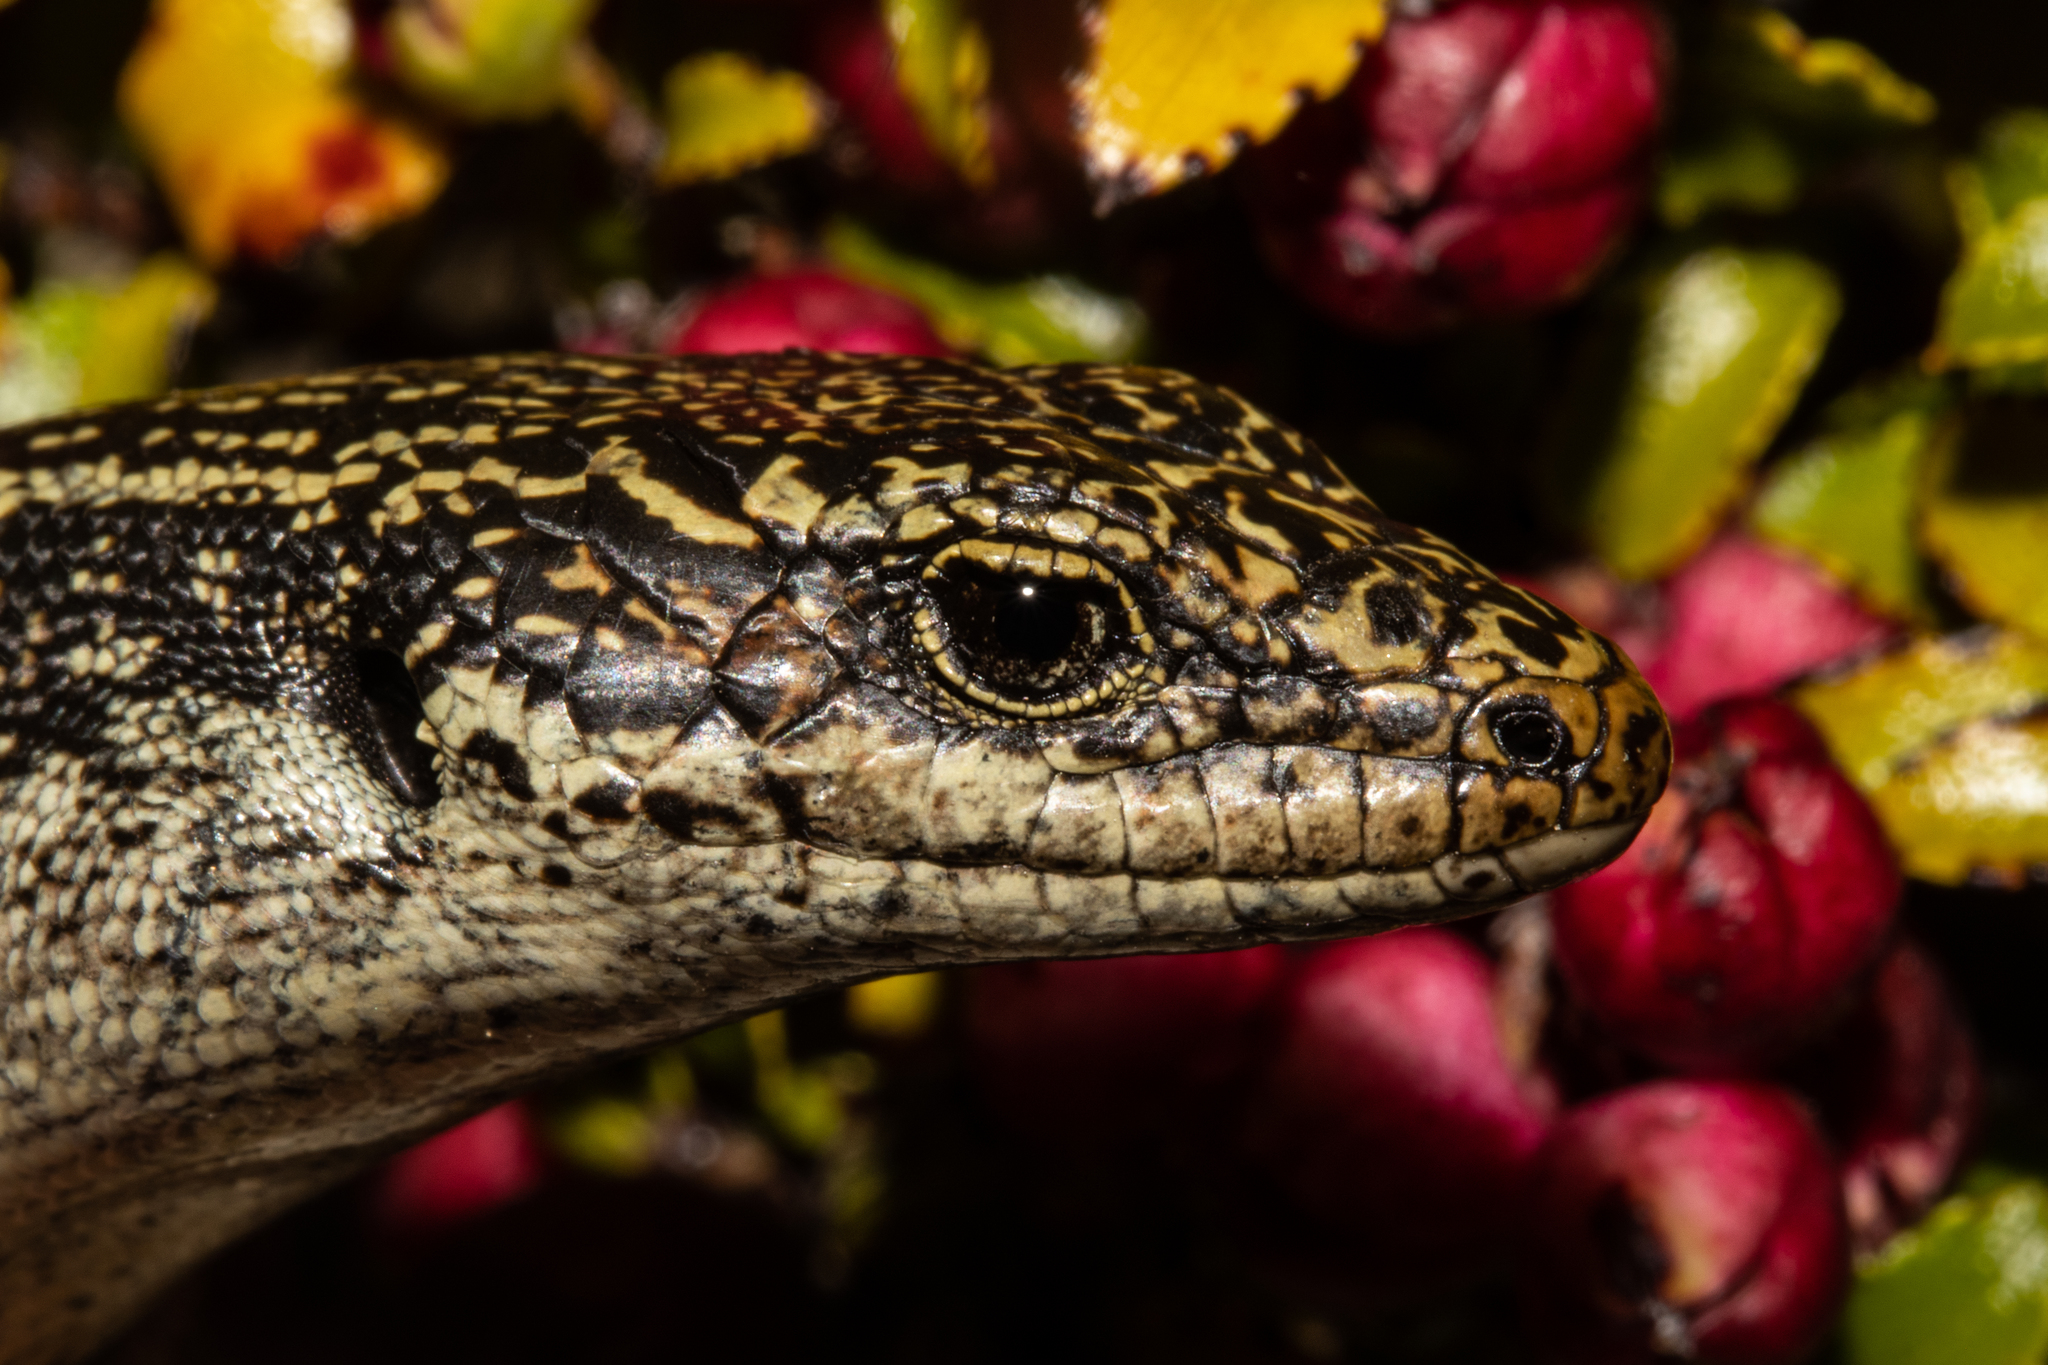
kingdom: Animalia
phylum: Chordata
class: Squamata
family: Scincidae
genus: Oligosoma
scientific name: Oligosoma grande
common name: Grand skink
